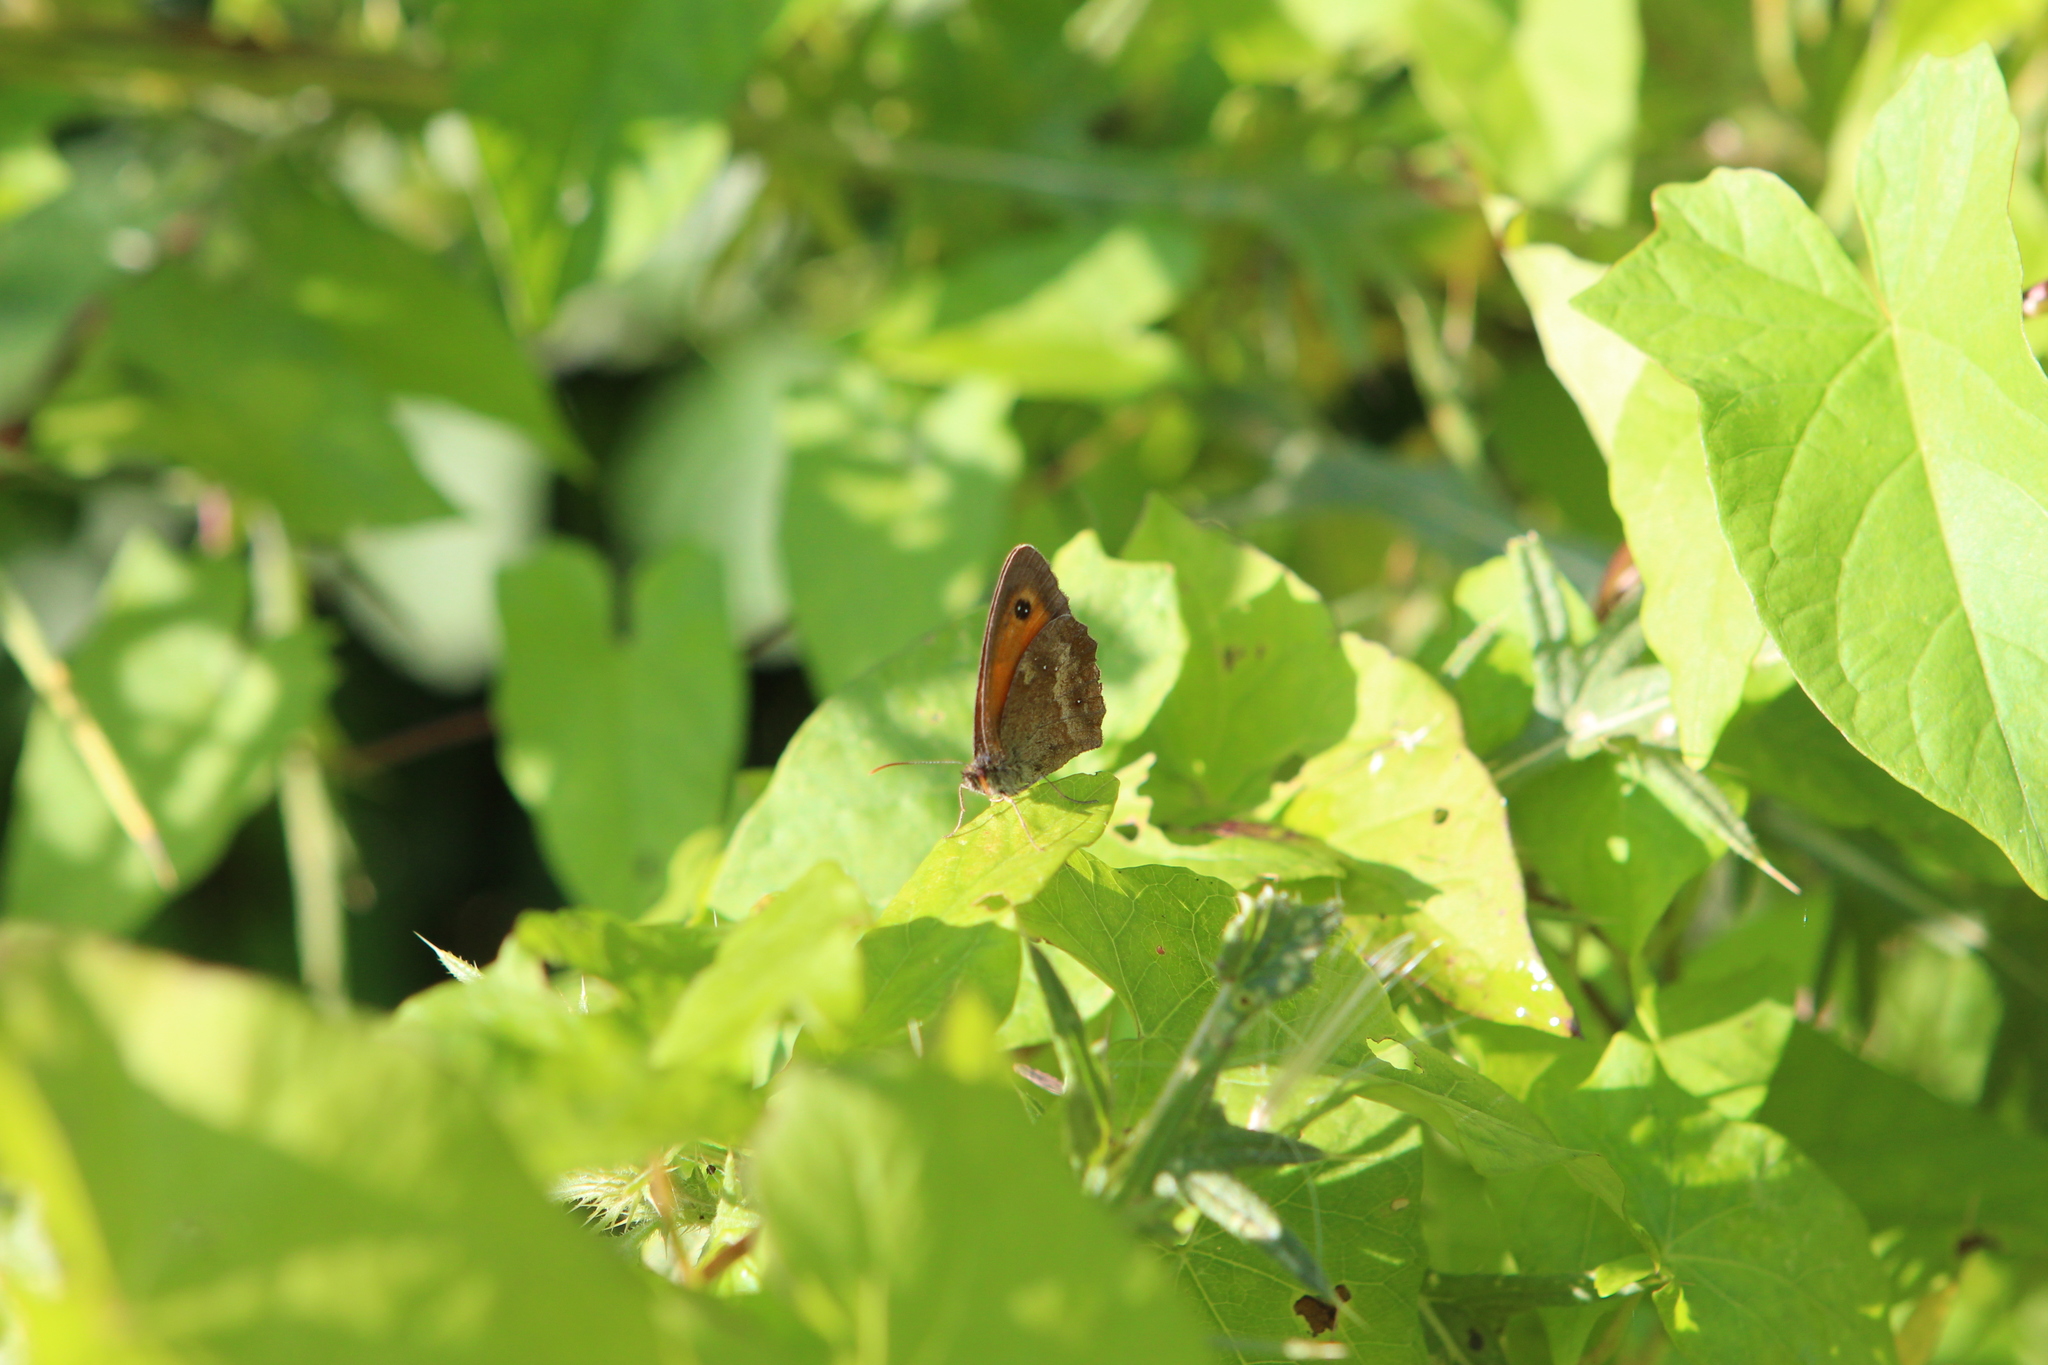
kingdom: Animalia
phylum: Arthropoda
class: Insecta
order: Lepidoptera
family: Nymphalidae
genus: Pyronia
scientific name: Pyronia tithonus
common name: Gatekeeper
